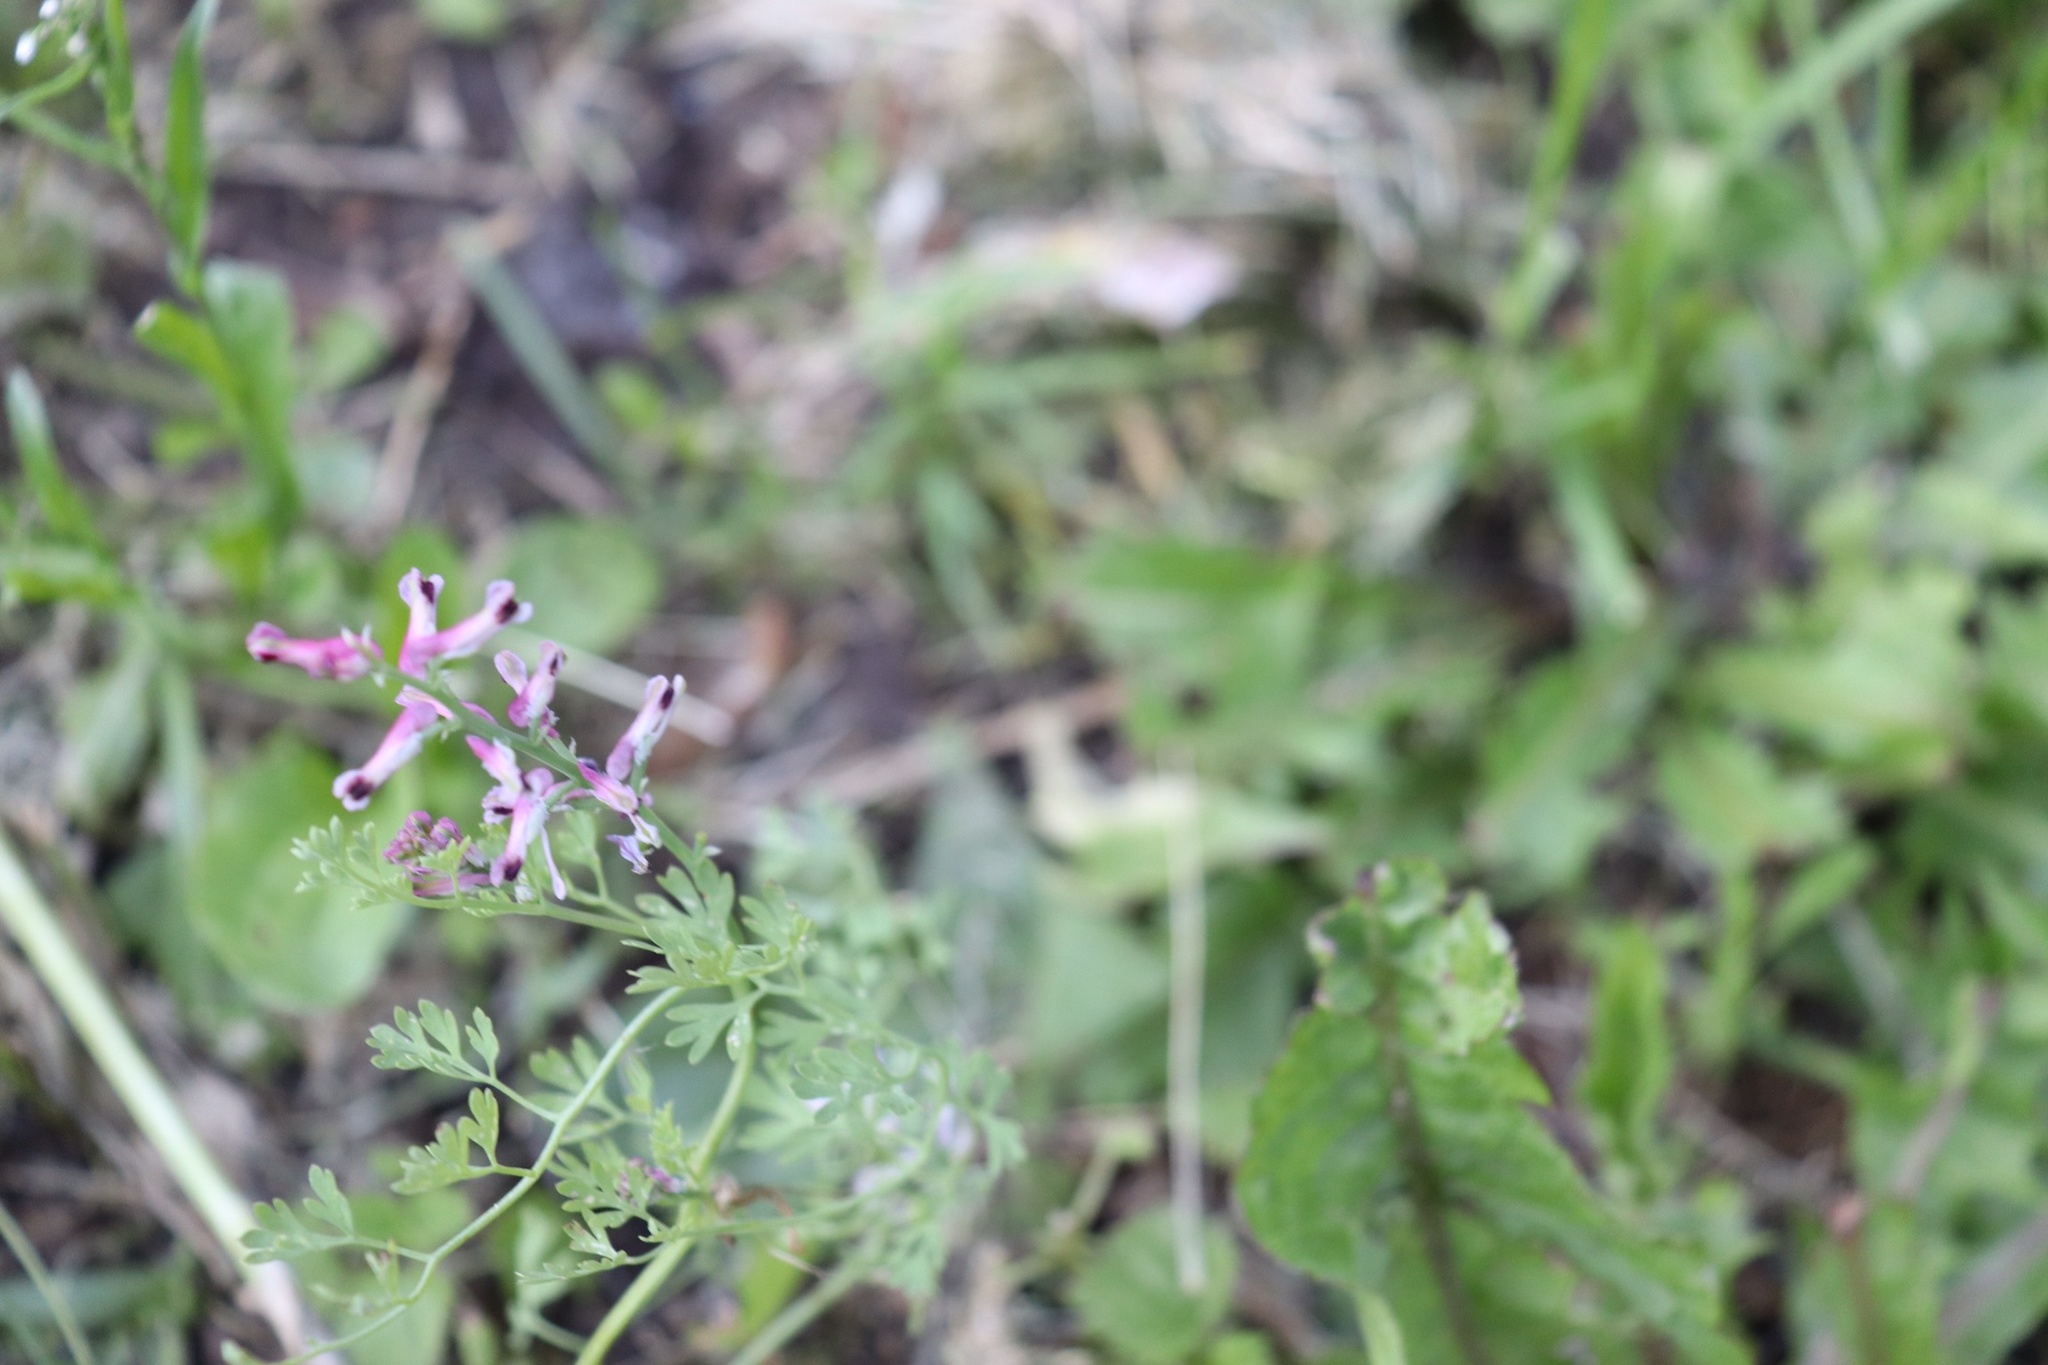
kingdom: Plantae
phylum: Tracheophyta
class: Magnoliopsida
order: Ranunculales
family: Papaveraceae
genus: Fumaria
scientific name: Fumaria officinalis
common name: Common fumitory
